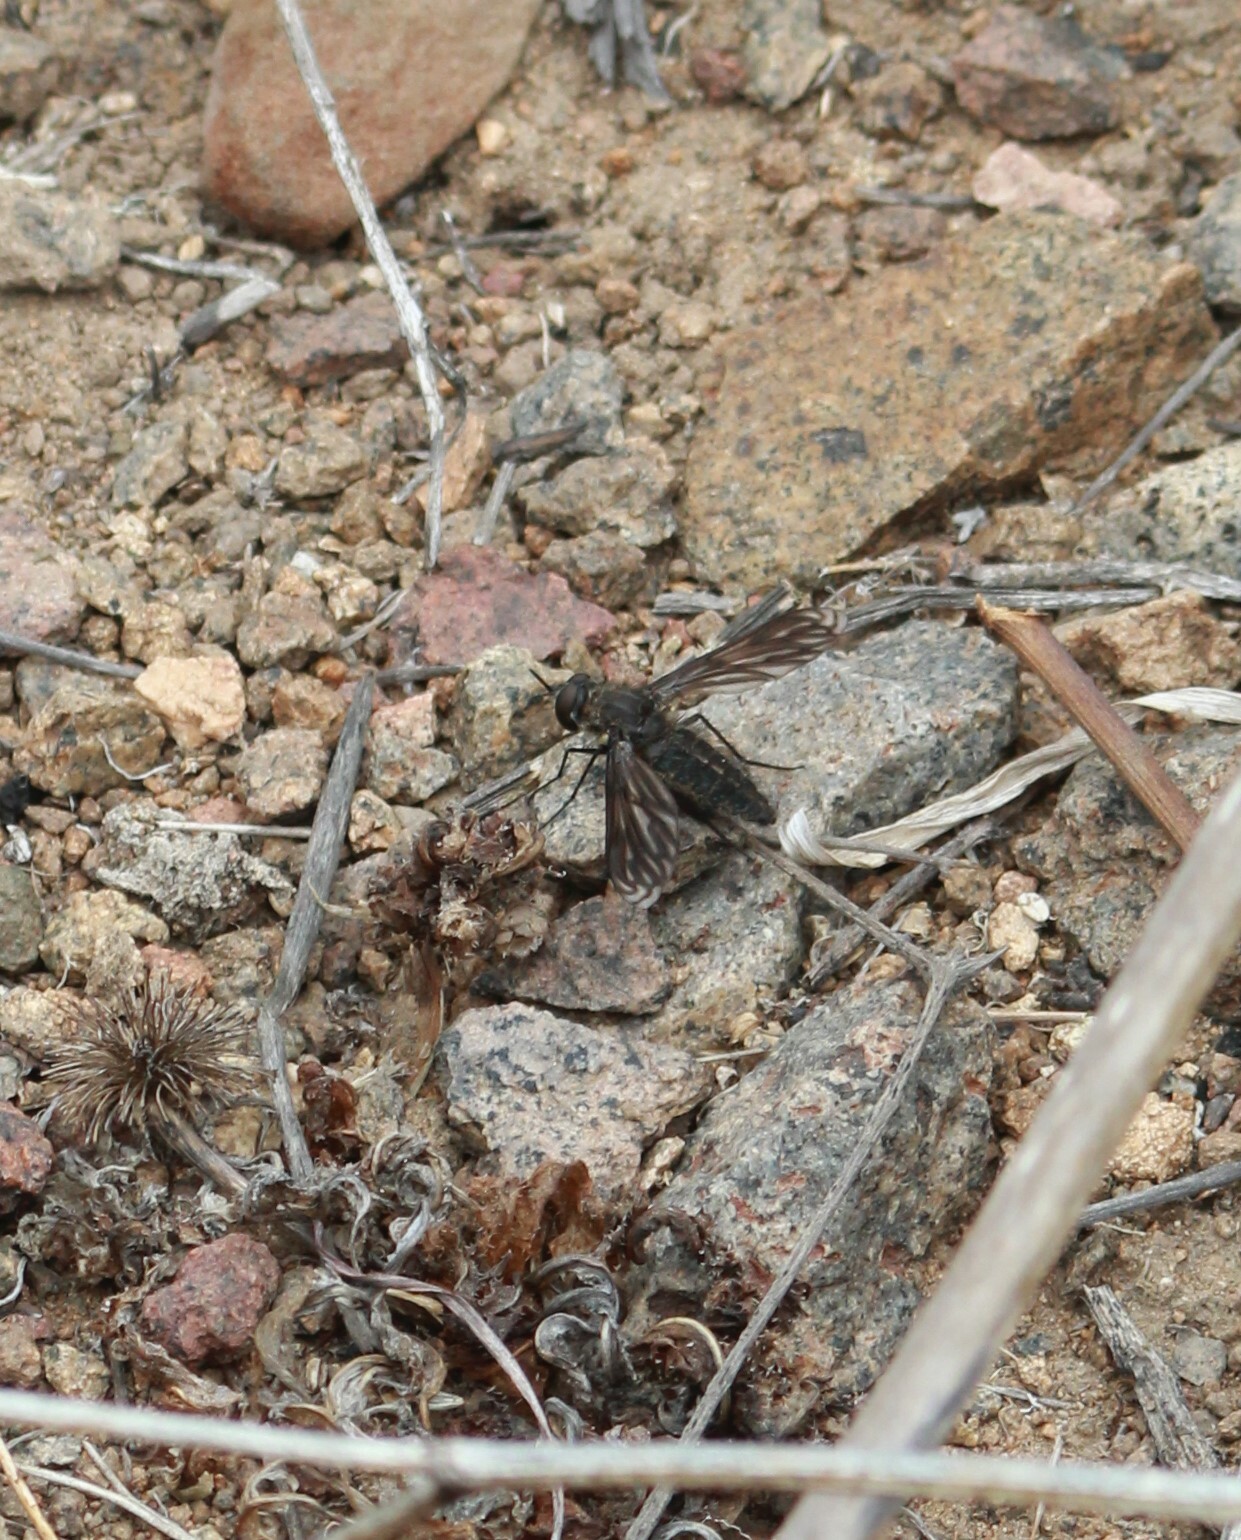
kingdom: Animalia
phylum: Arthropoda
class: Insecta
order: Diptera
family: Bombyliidae
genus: Macrocondyla
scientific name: Macrocondyla lugubris
